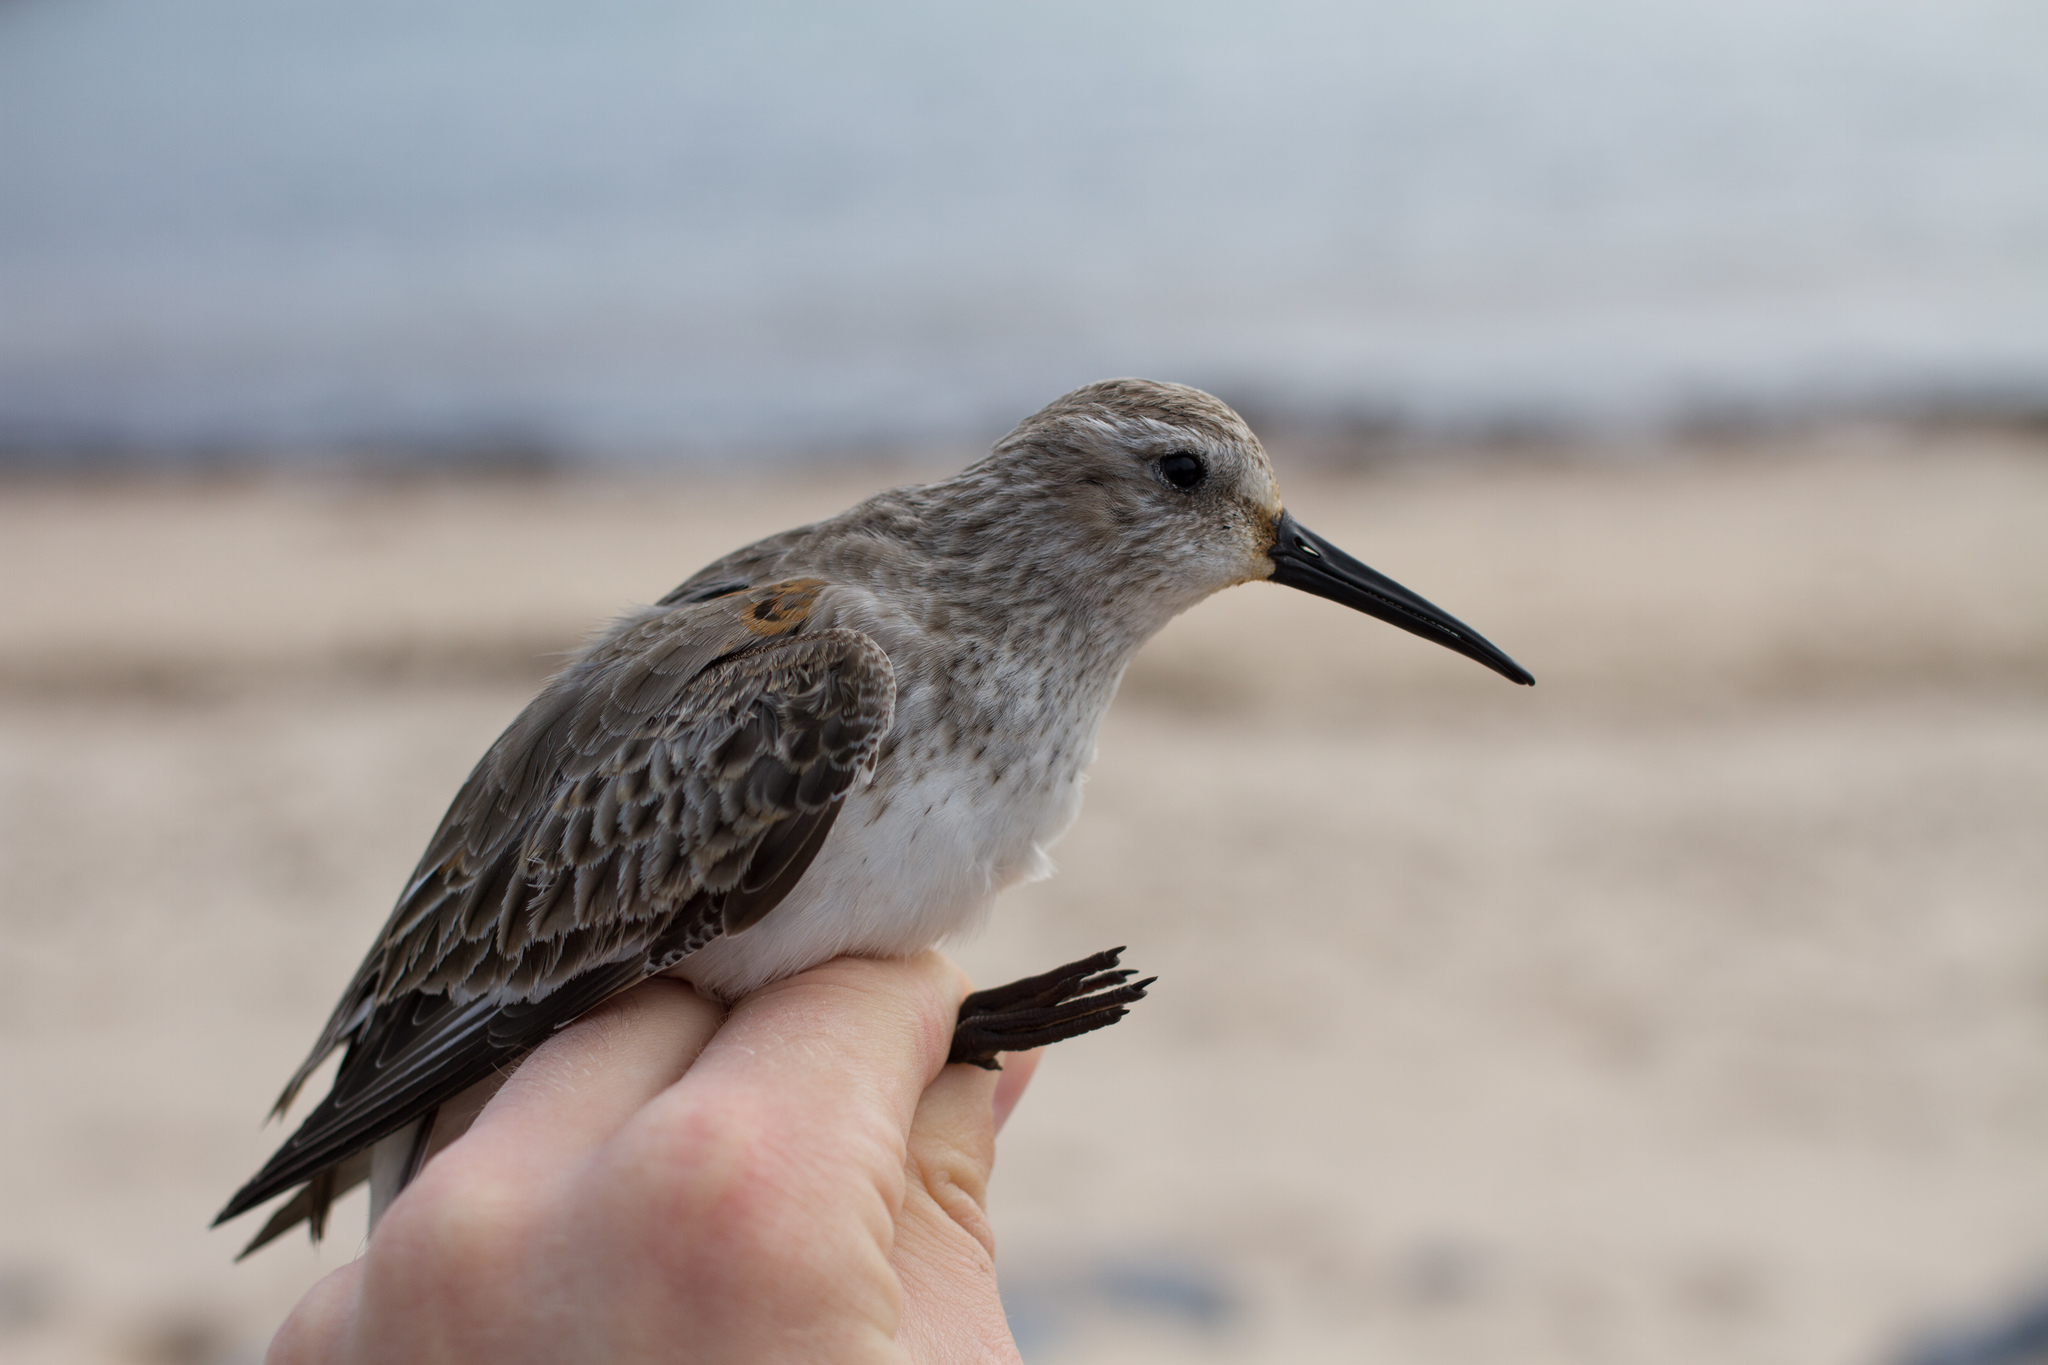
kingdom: Animalia
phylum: Chordata
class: Aves
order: Charadriiformes
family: Scolopacidae
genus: Calidris
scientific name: Calidris alpina
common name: Dunlin
